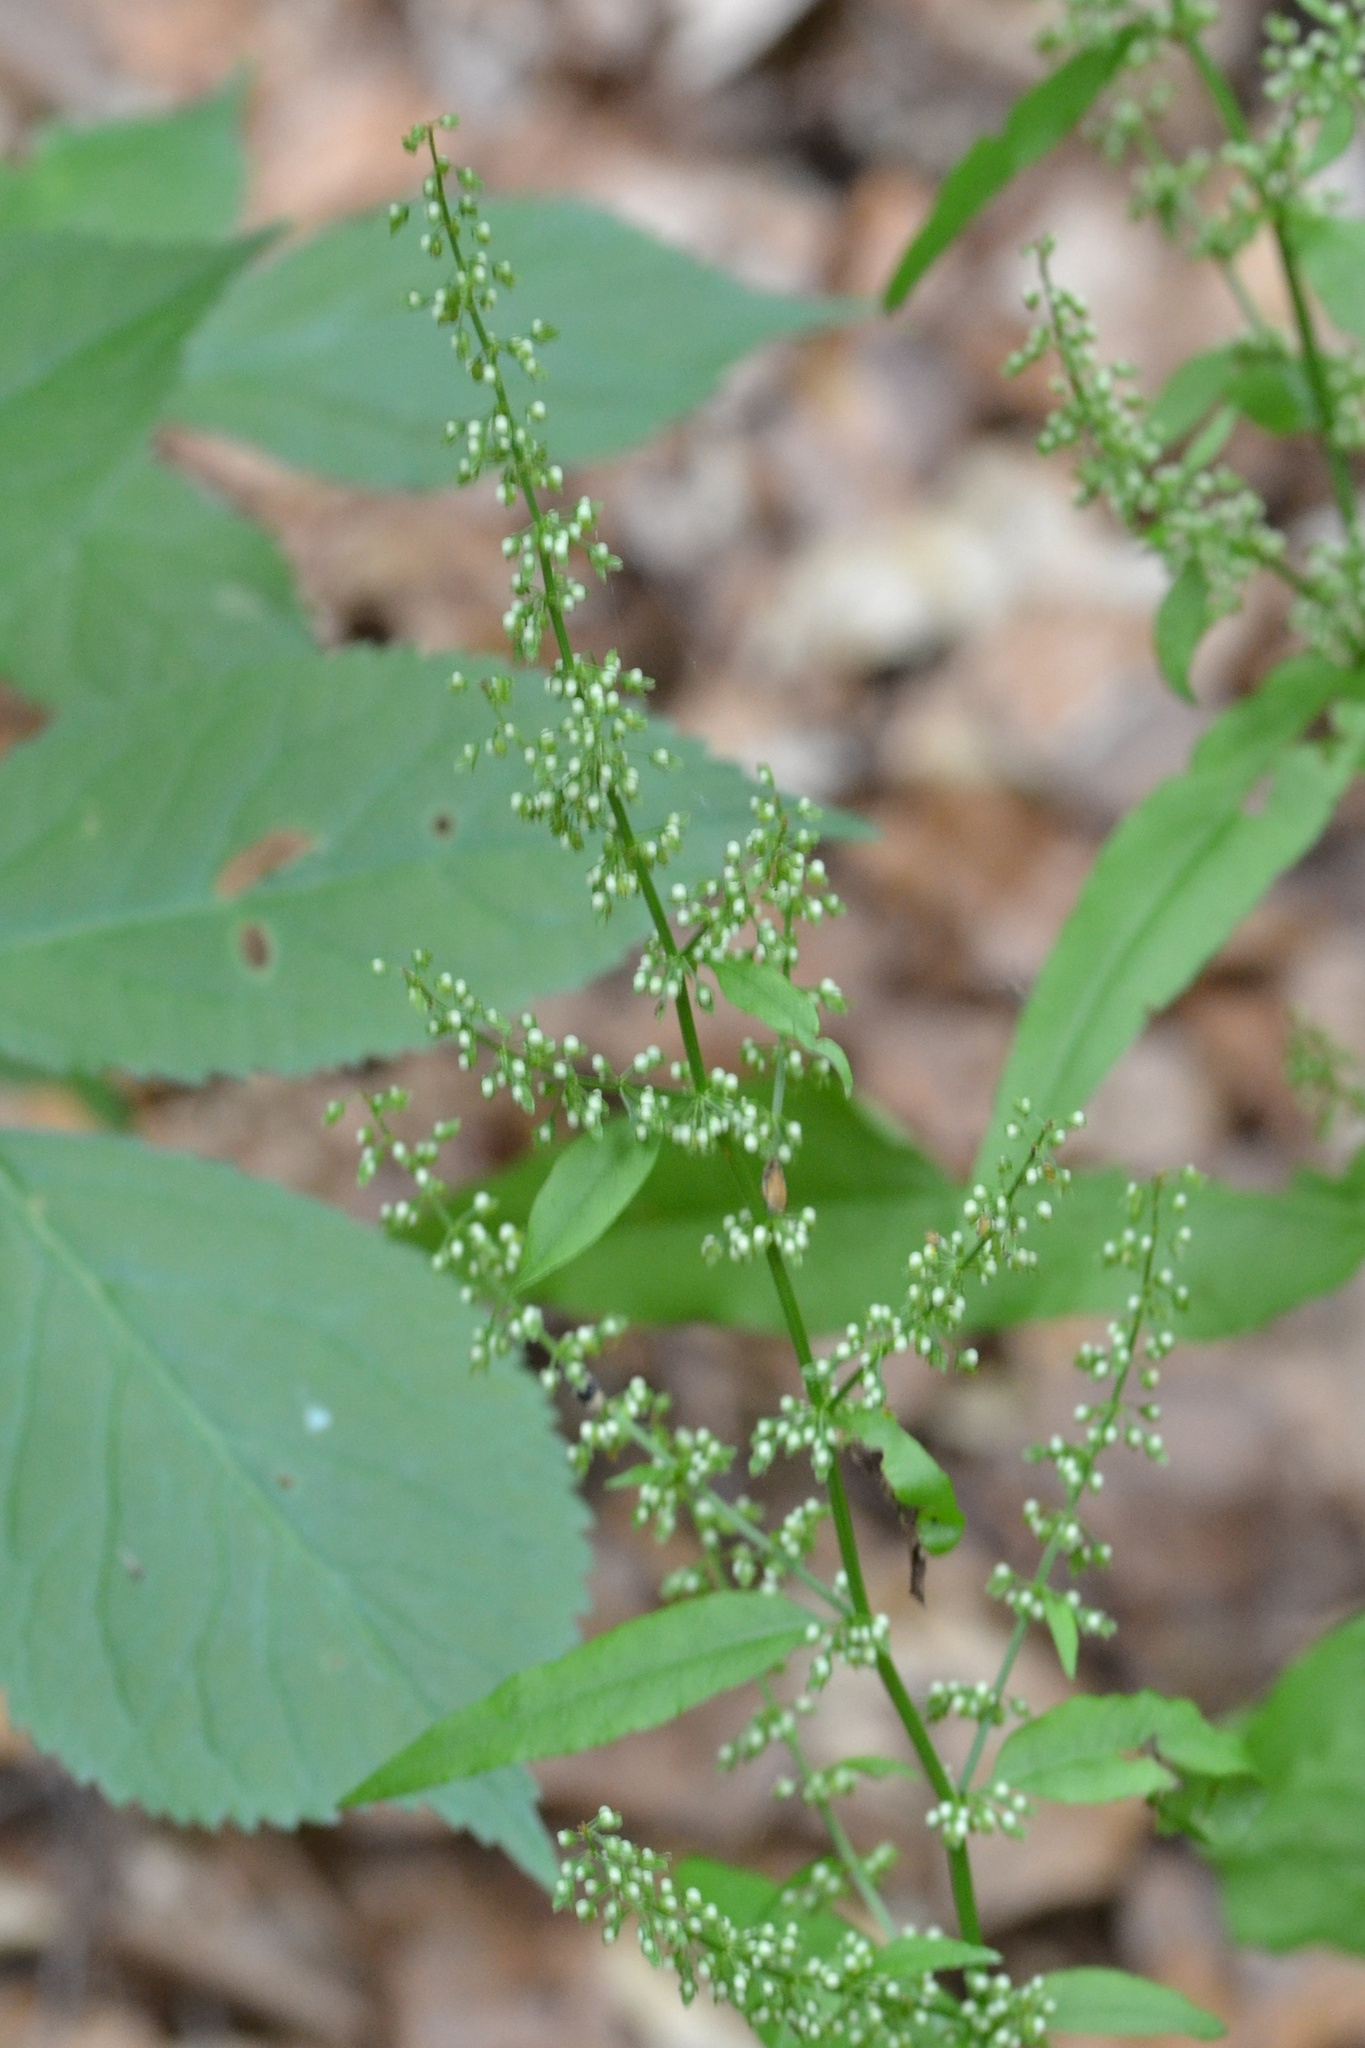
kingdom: Plantae
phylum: Tracheophyta
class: Magnoliopsida
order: Caryophyllales
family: Polygonaceae
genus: Rumex
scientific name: Rumex sanguineus
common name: Wood dock
